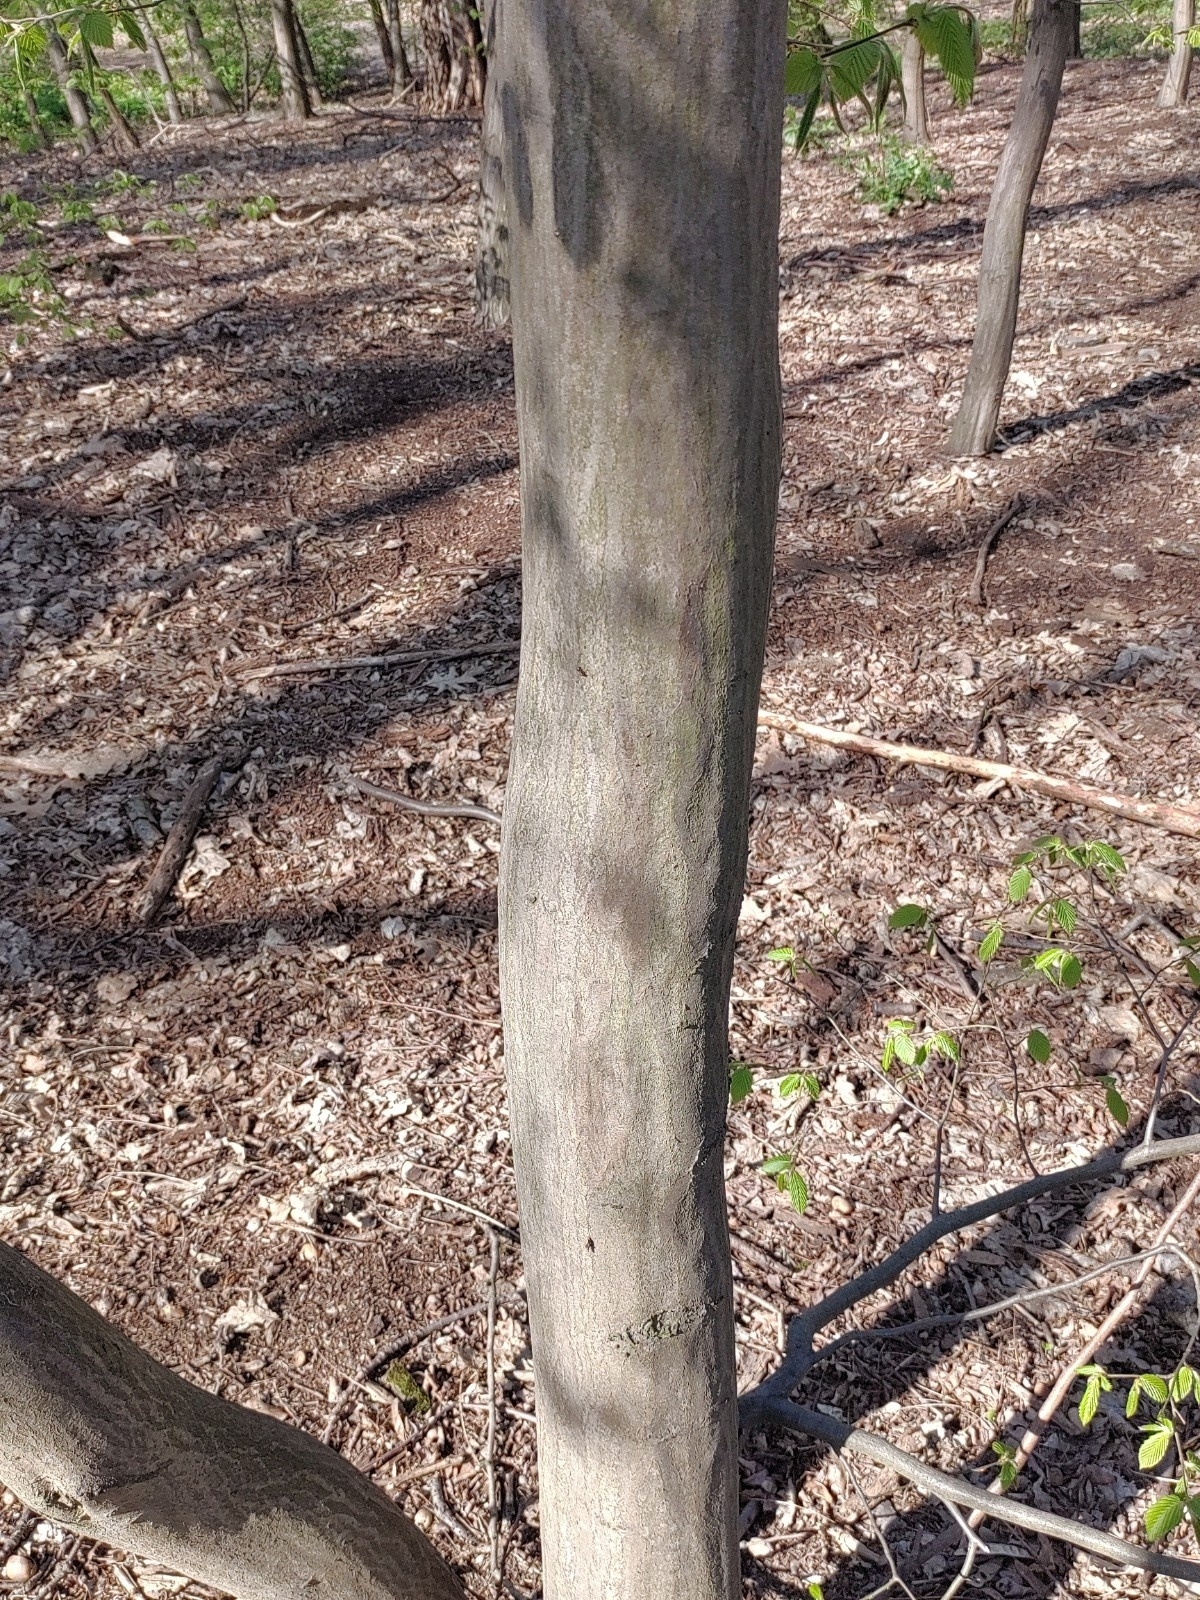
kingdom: Plantae
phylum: Tracheophyta
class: Magnoliopsida
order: Fagales
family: Betulaceae
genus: Carpinus
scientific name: Carpinus betulus
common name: Hornbeam
